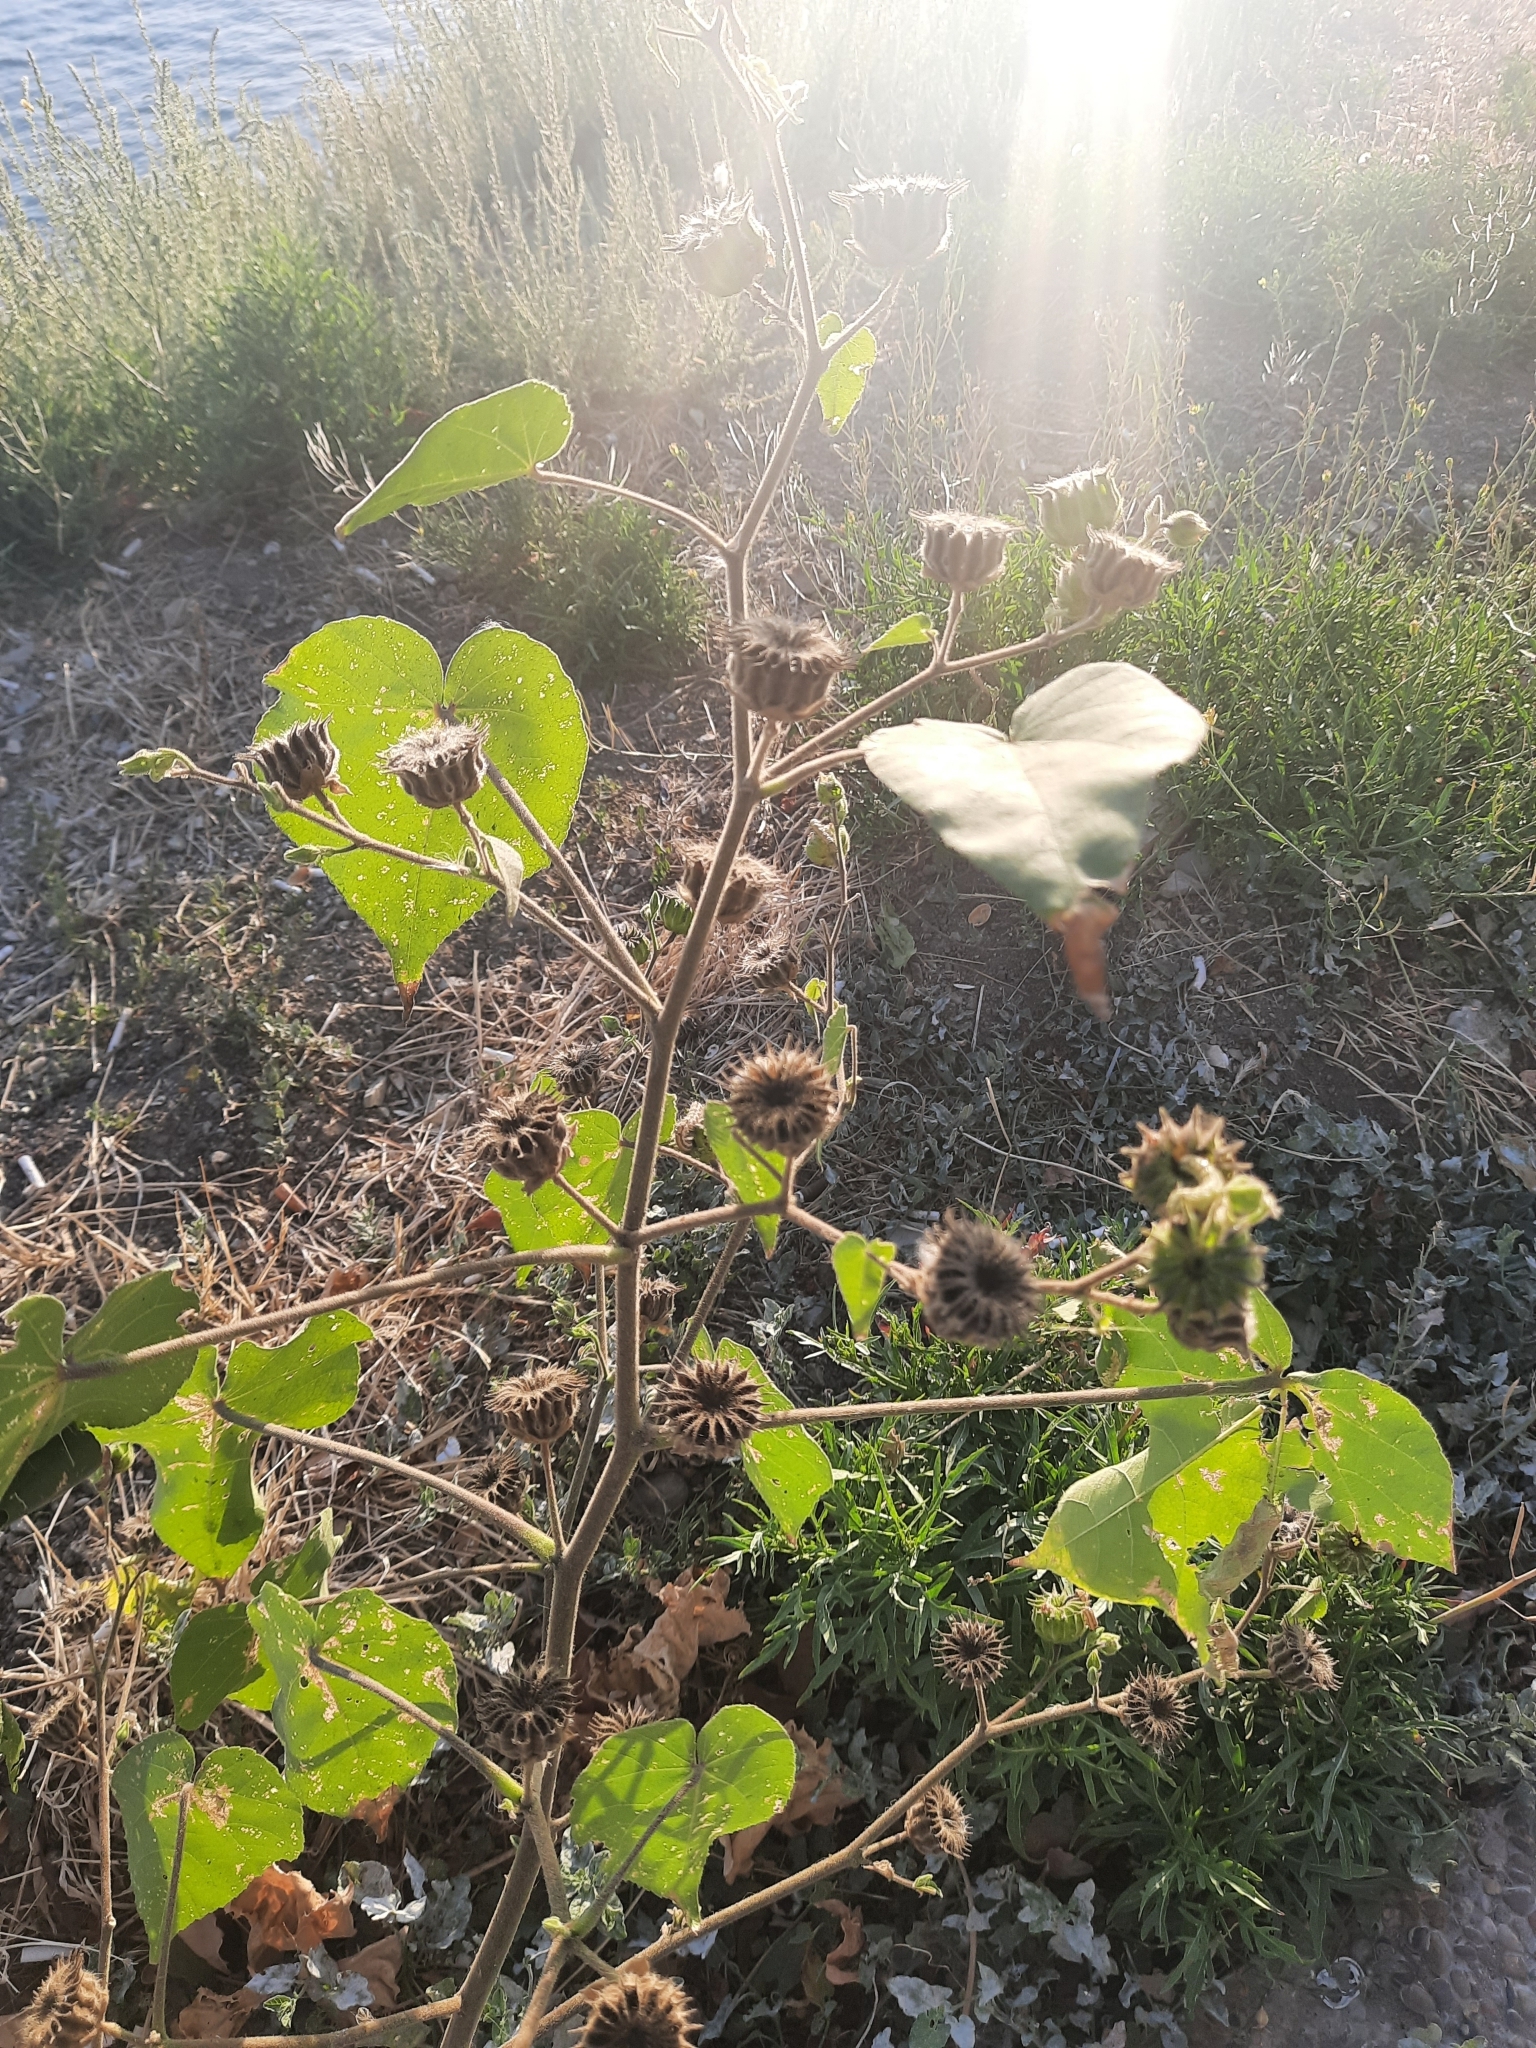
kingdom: Plantae
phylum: Tracheophyta
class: Magnoliopsida
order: Malvales
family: Malvaceae
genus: Abutilon
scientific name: Abutilon theophrasti
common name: Velvetleaf
